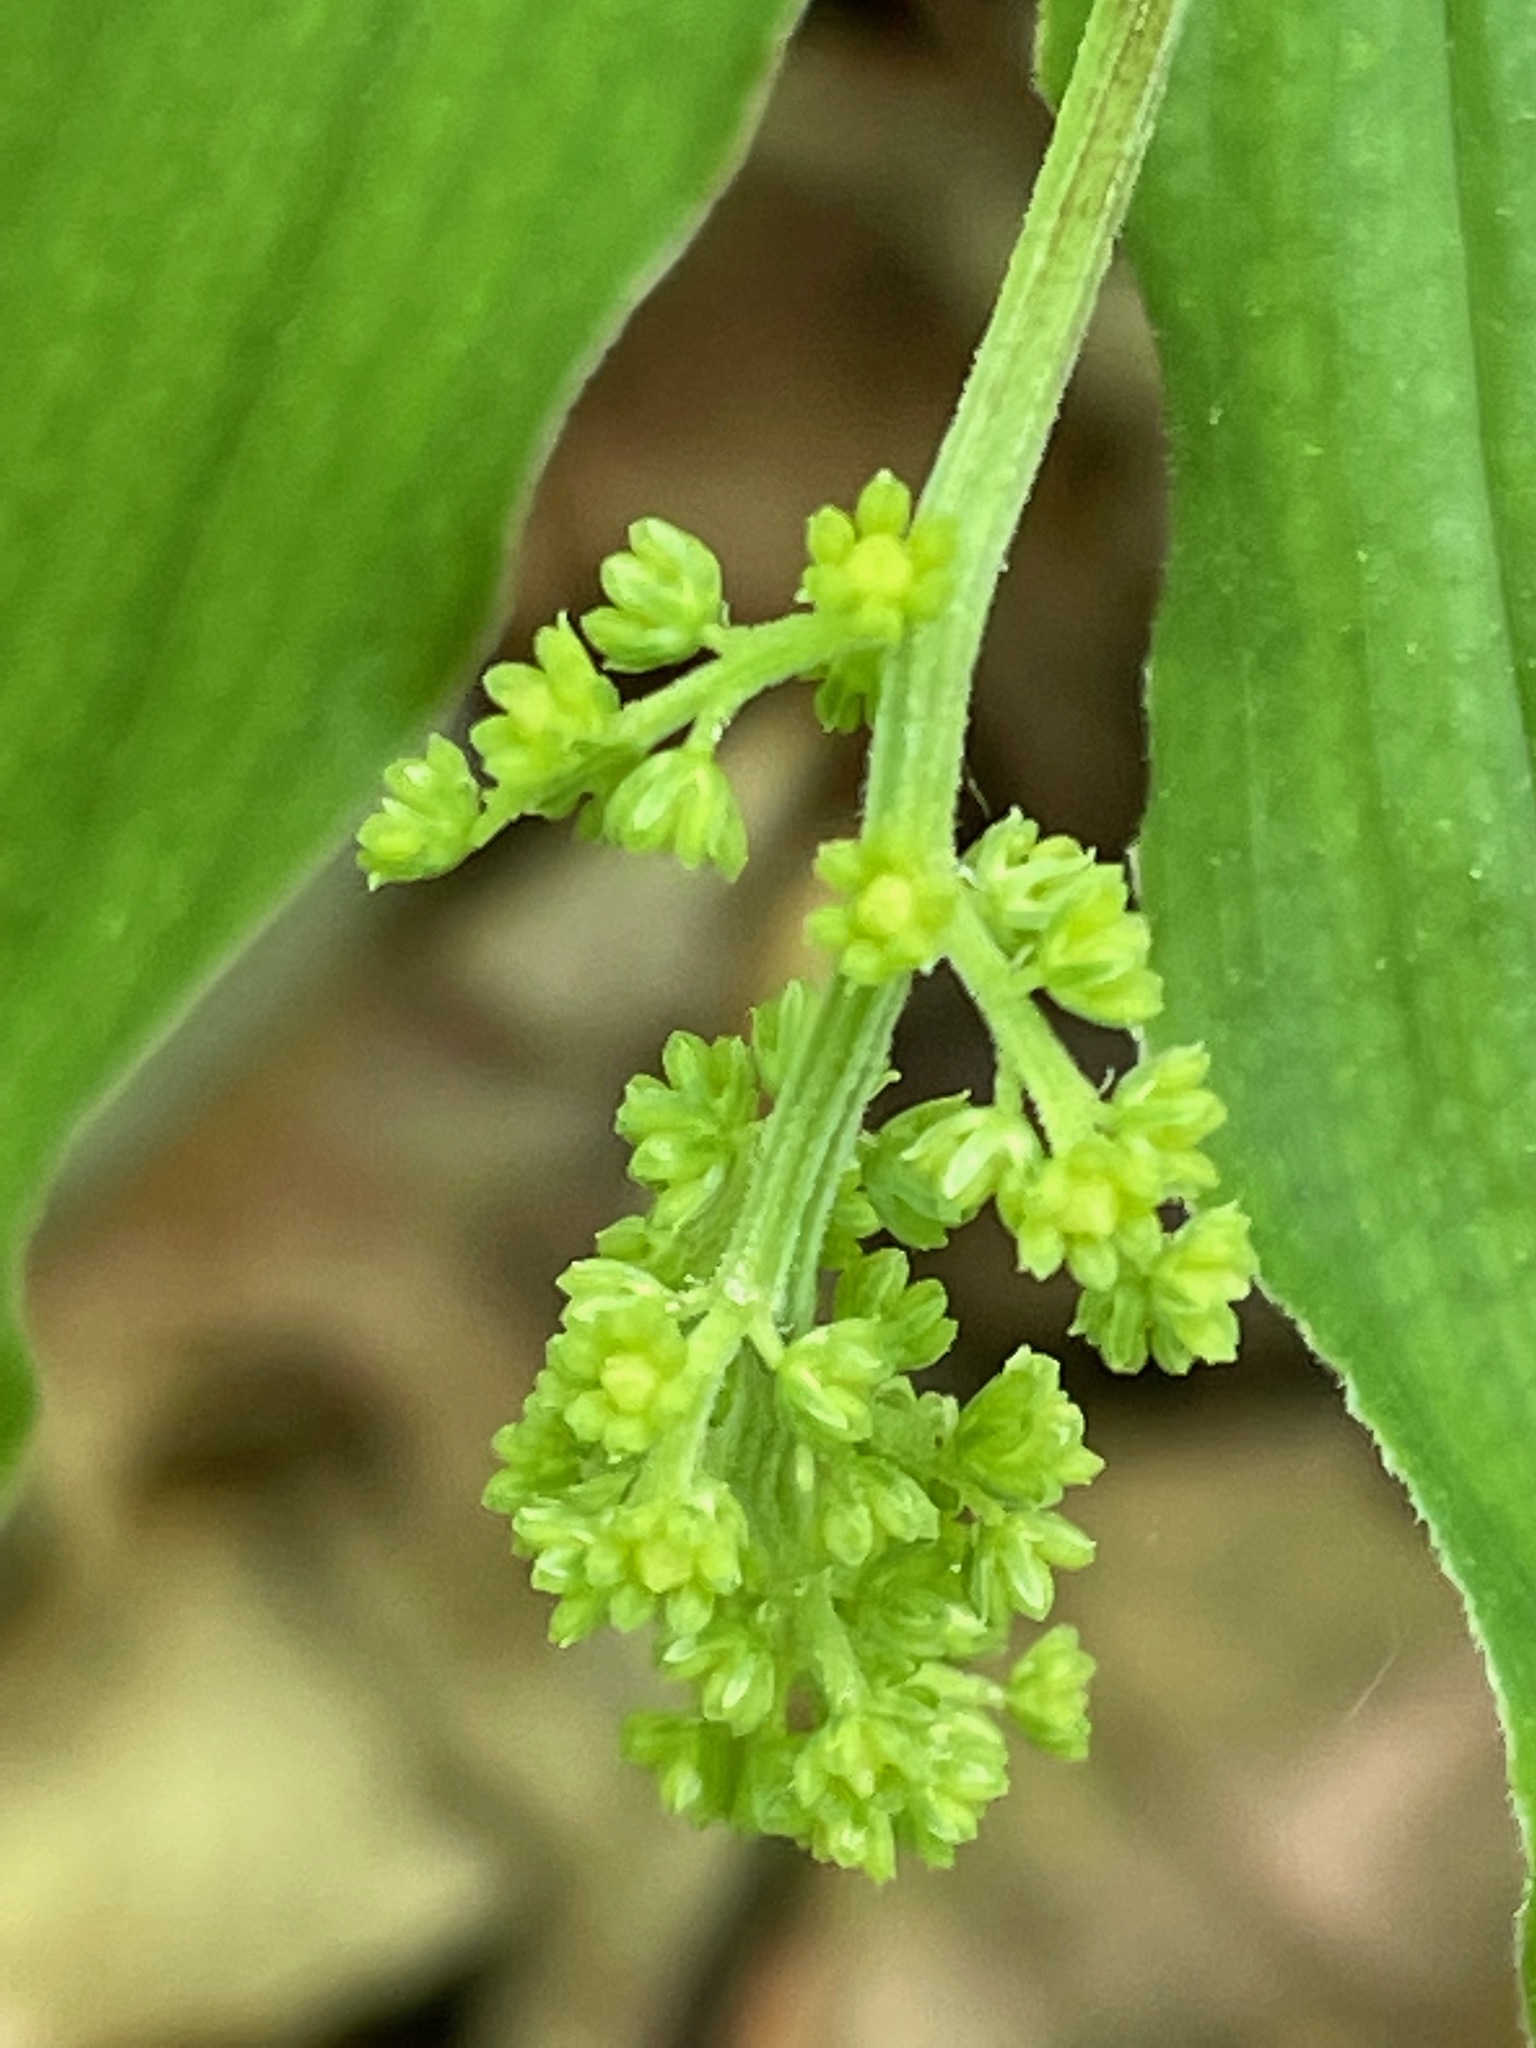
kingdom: Plantae
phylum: Tracheophyta
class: Liliopsida
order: Asparagales
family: Asparagaceae
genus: Maianthemum
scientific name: Maianthemum racemosum
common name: False spikenard
